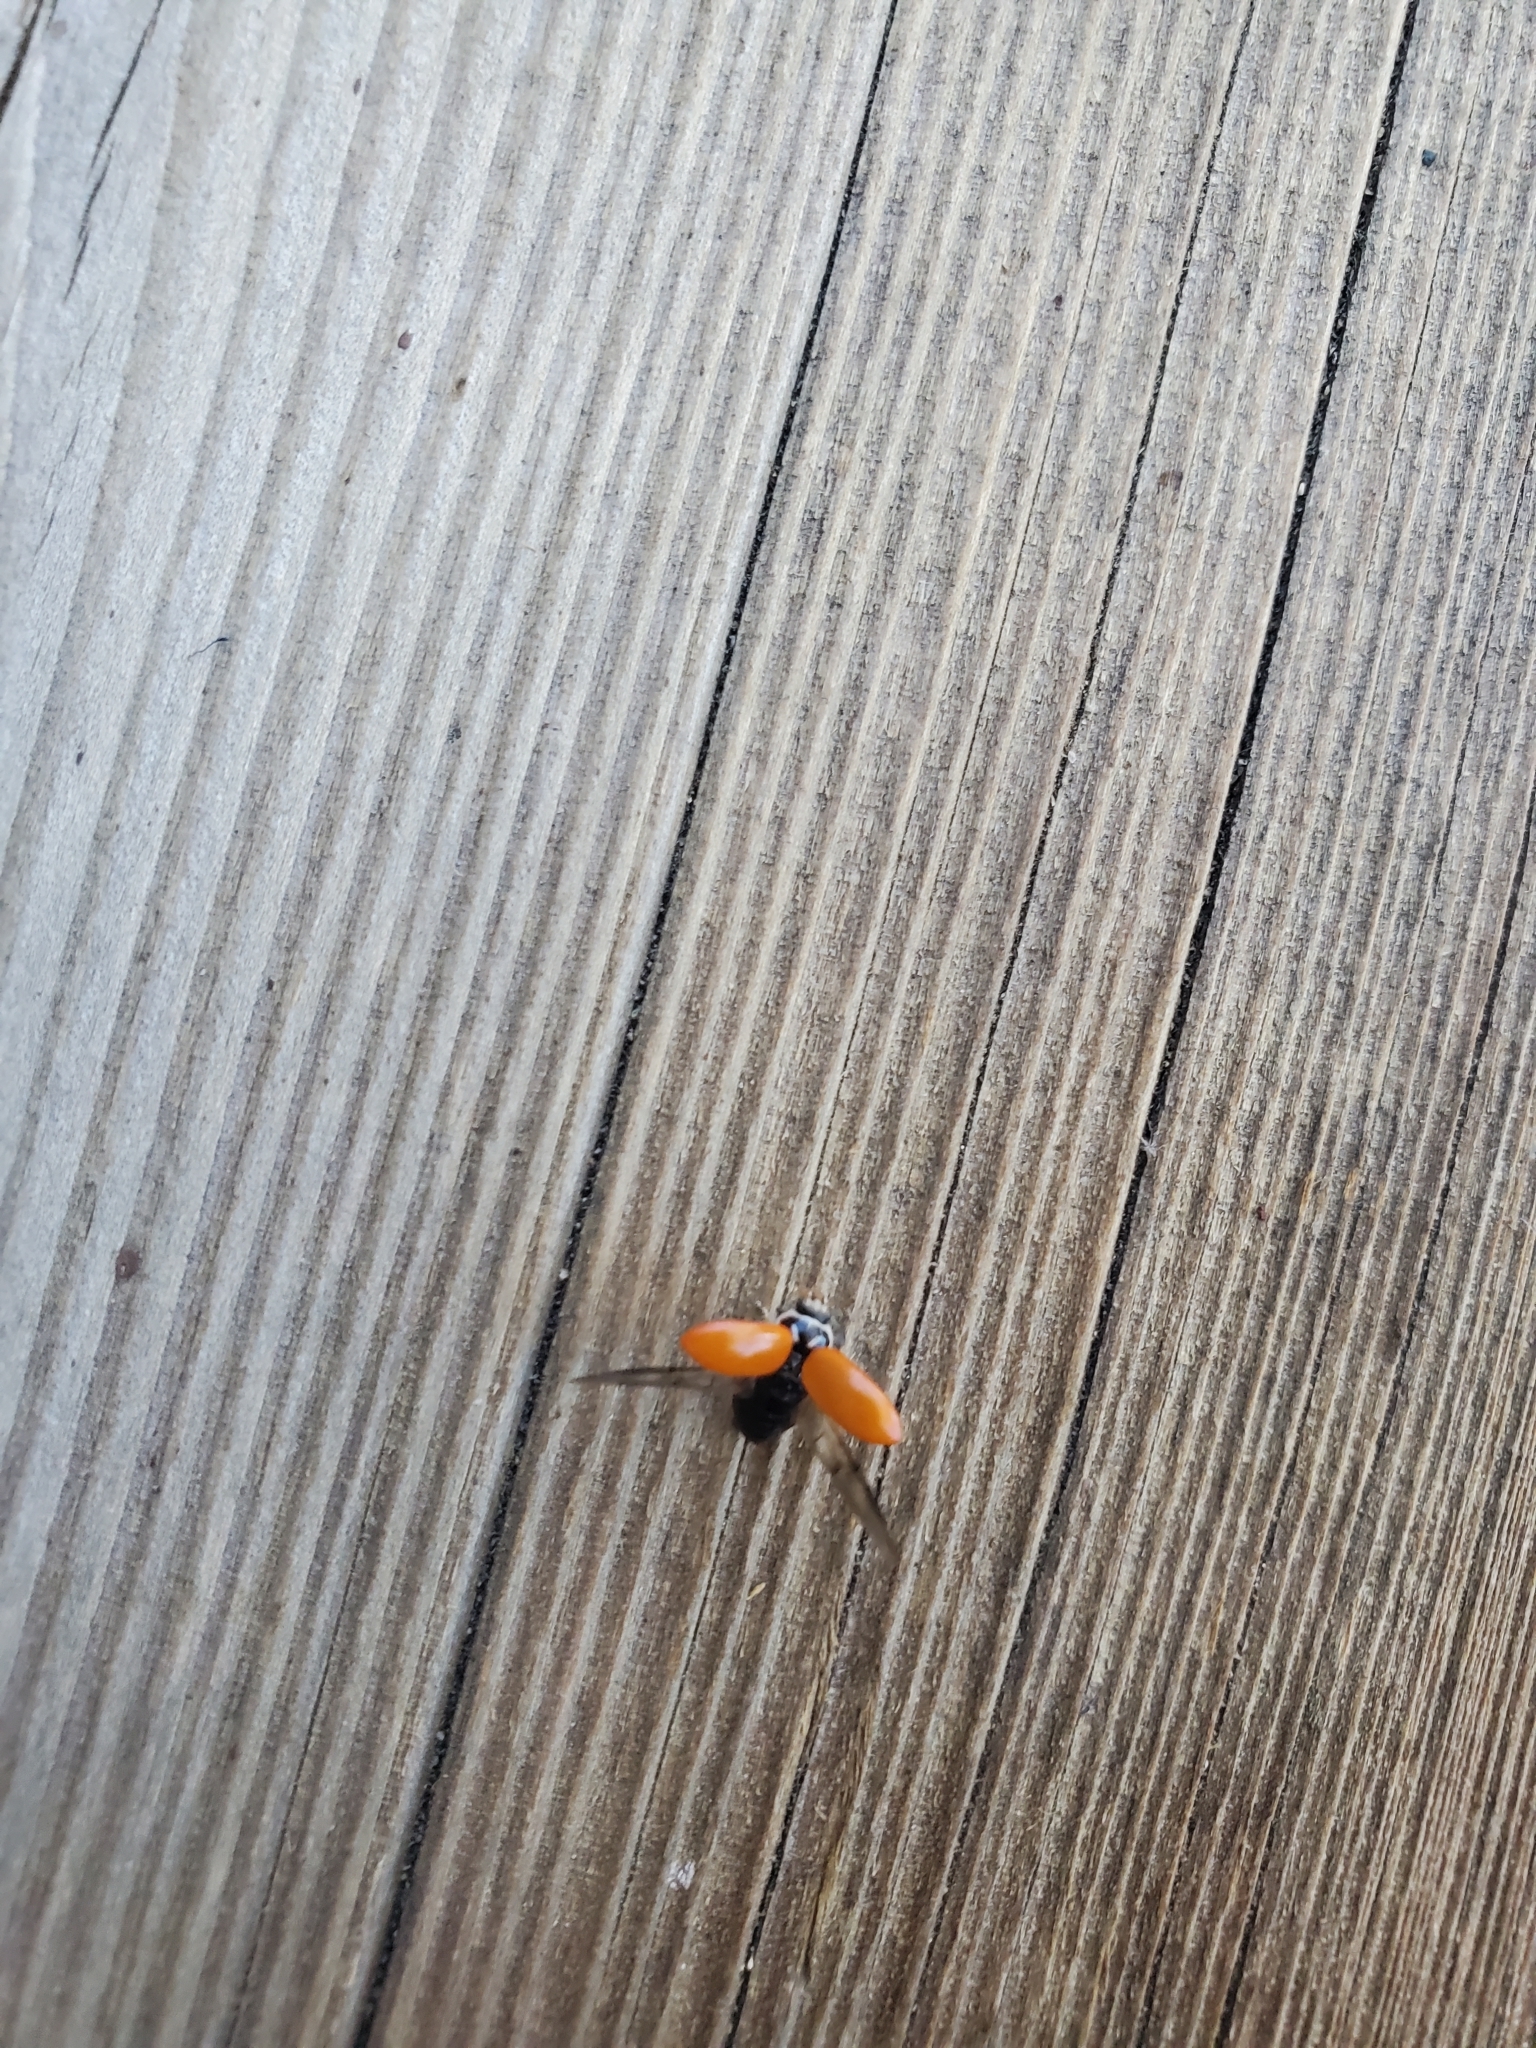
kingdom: Animalia
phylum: Arthropoda
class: Insecta
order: Coleoptera
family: Coccinellidae
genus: Hippodamia
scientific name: Hippodamia convergens
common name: Convergent lady beetle
